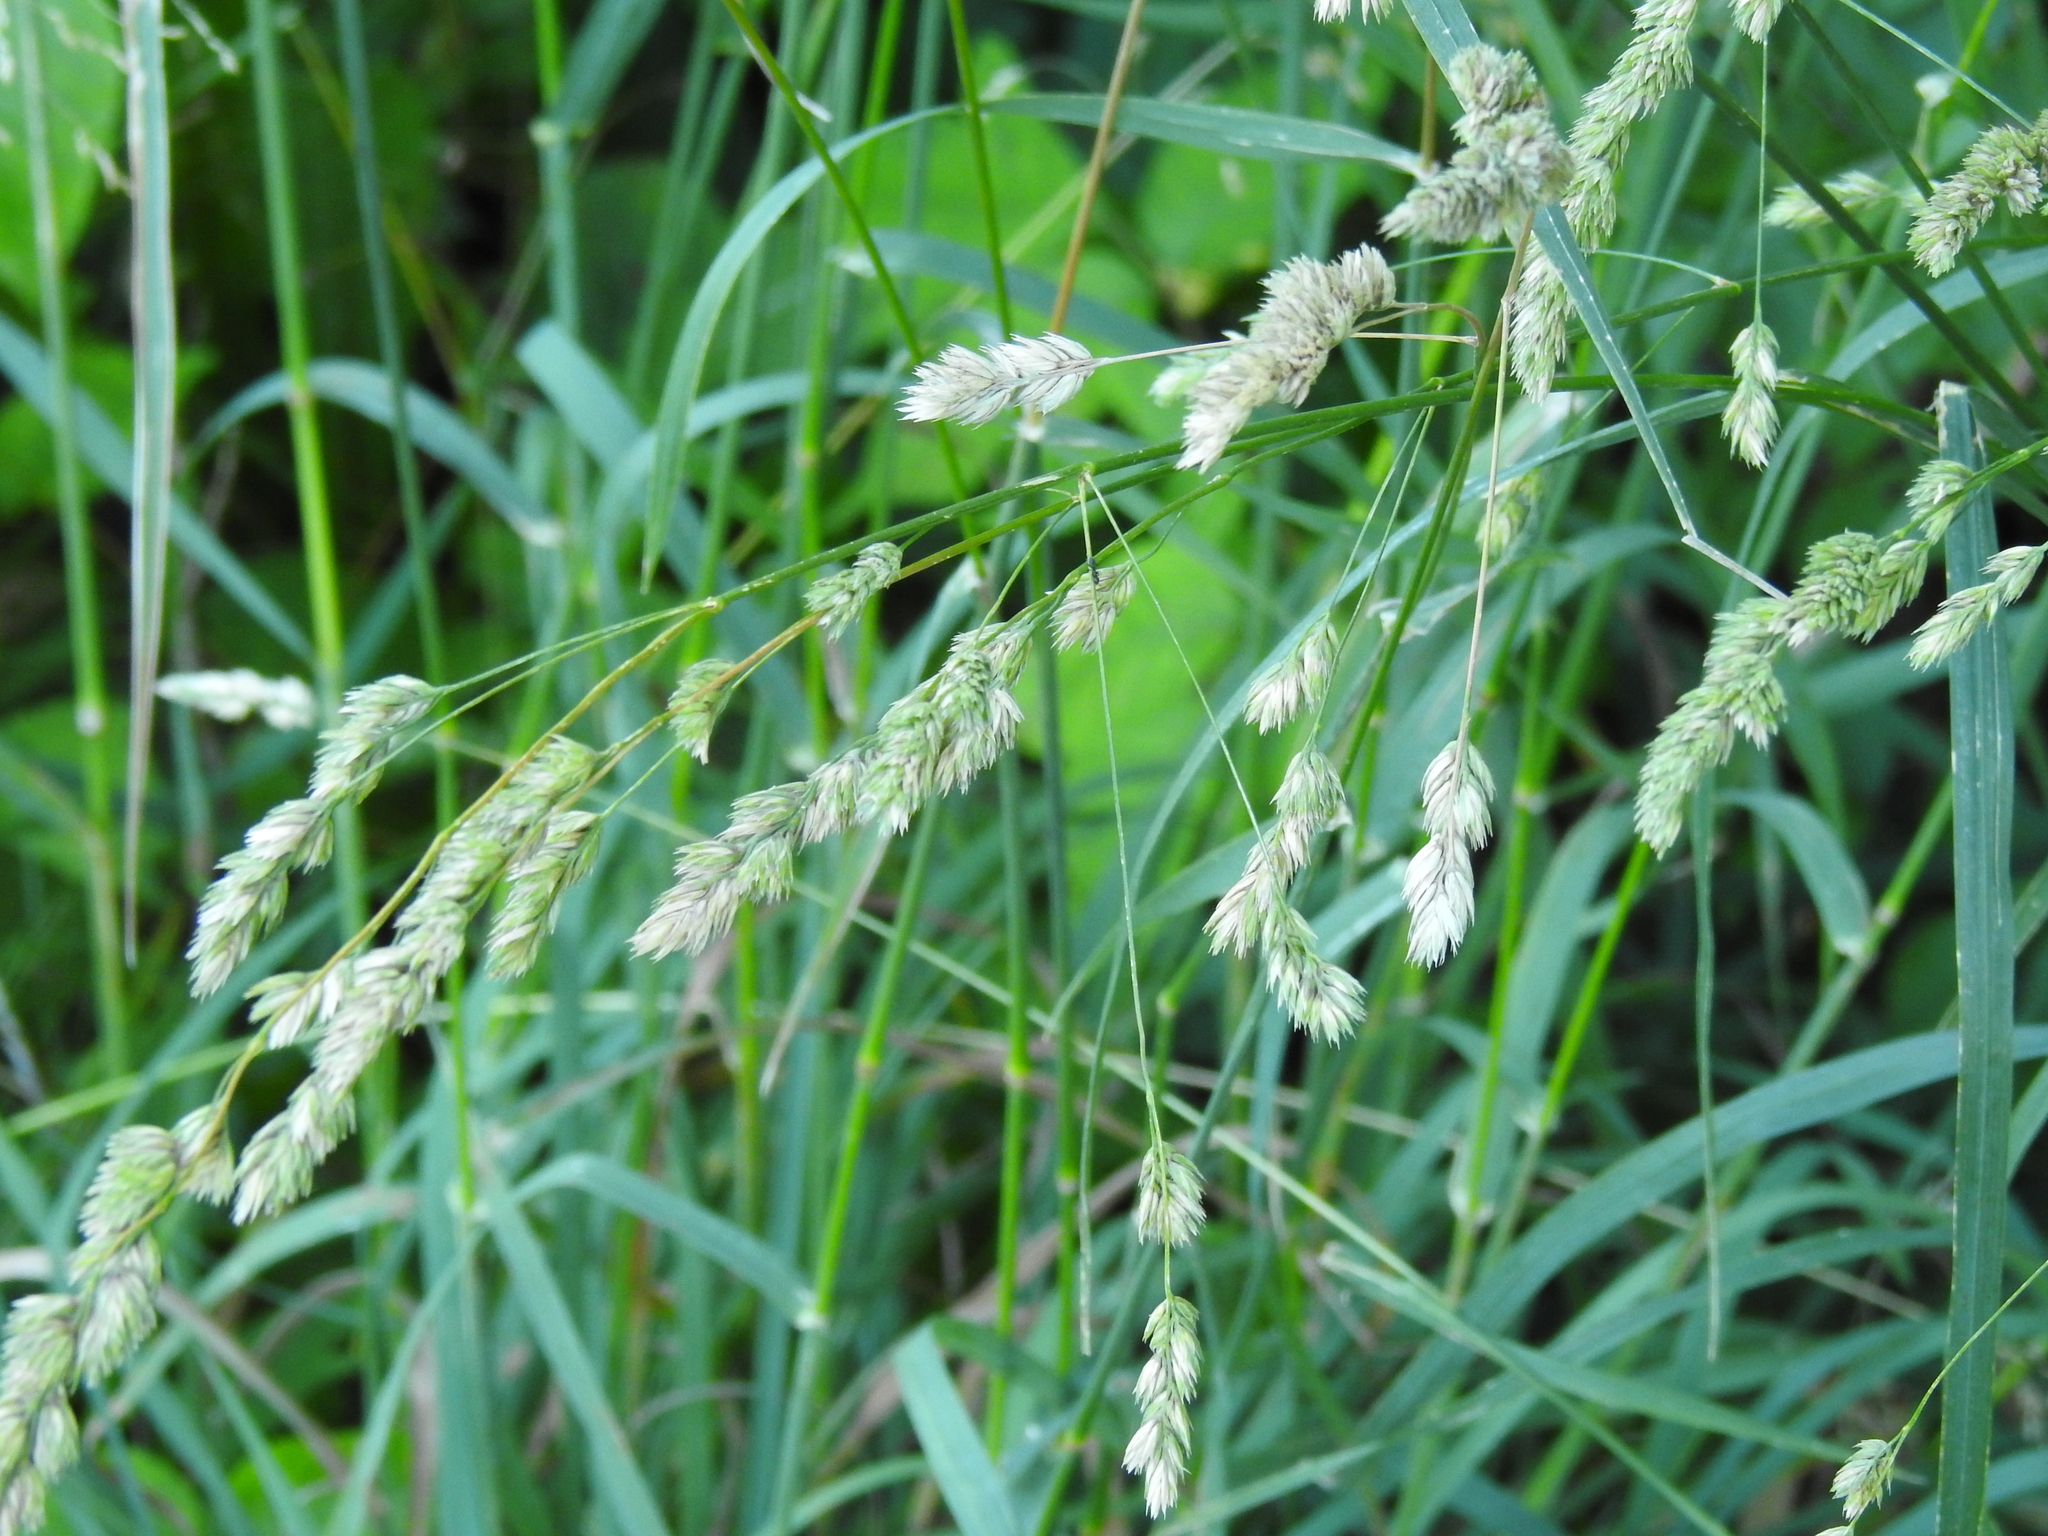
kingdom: Plantae
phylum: Tracheophyta
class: Liliopsida
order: Poales
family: Poaceae
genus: Dactylis
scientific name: Dactylis glomerata
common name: Orchardgrass
